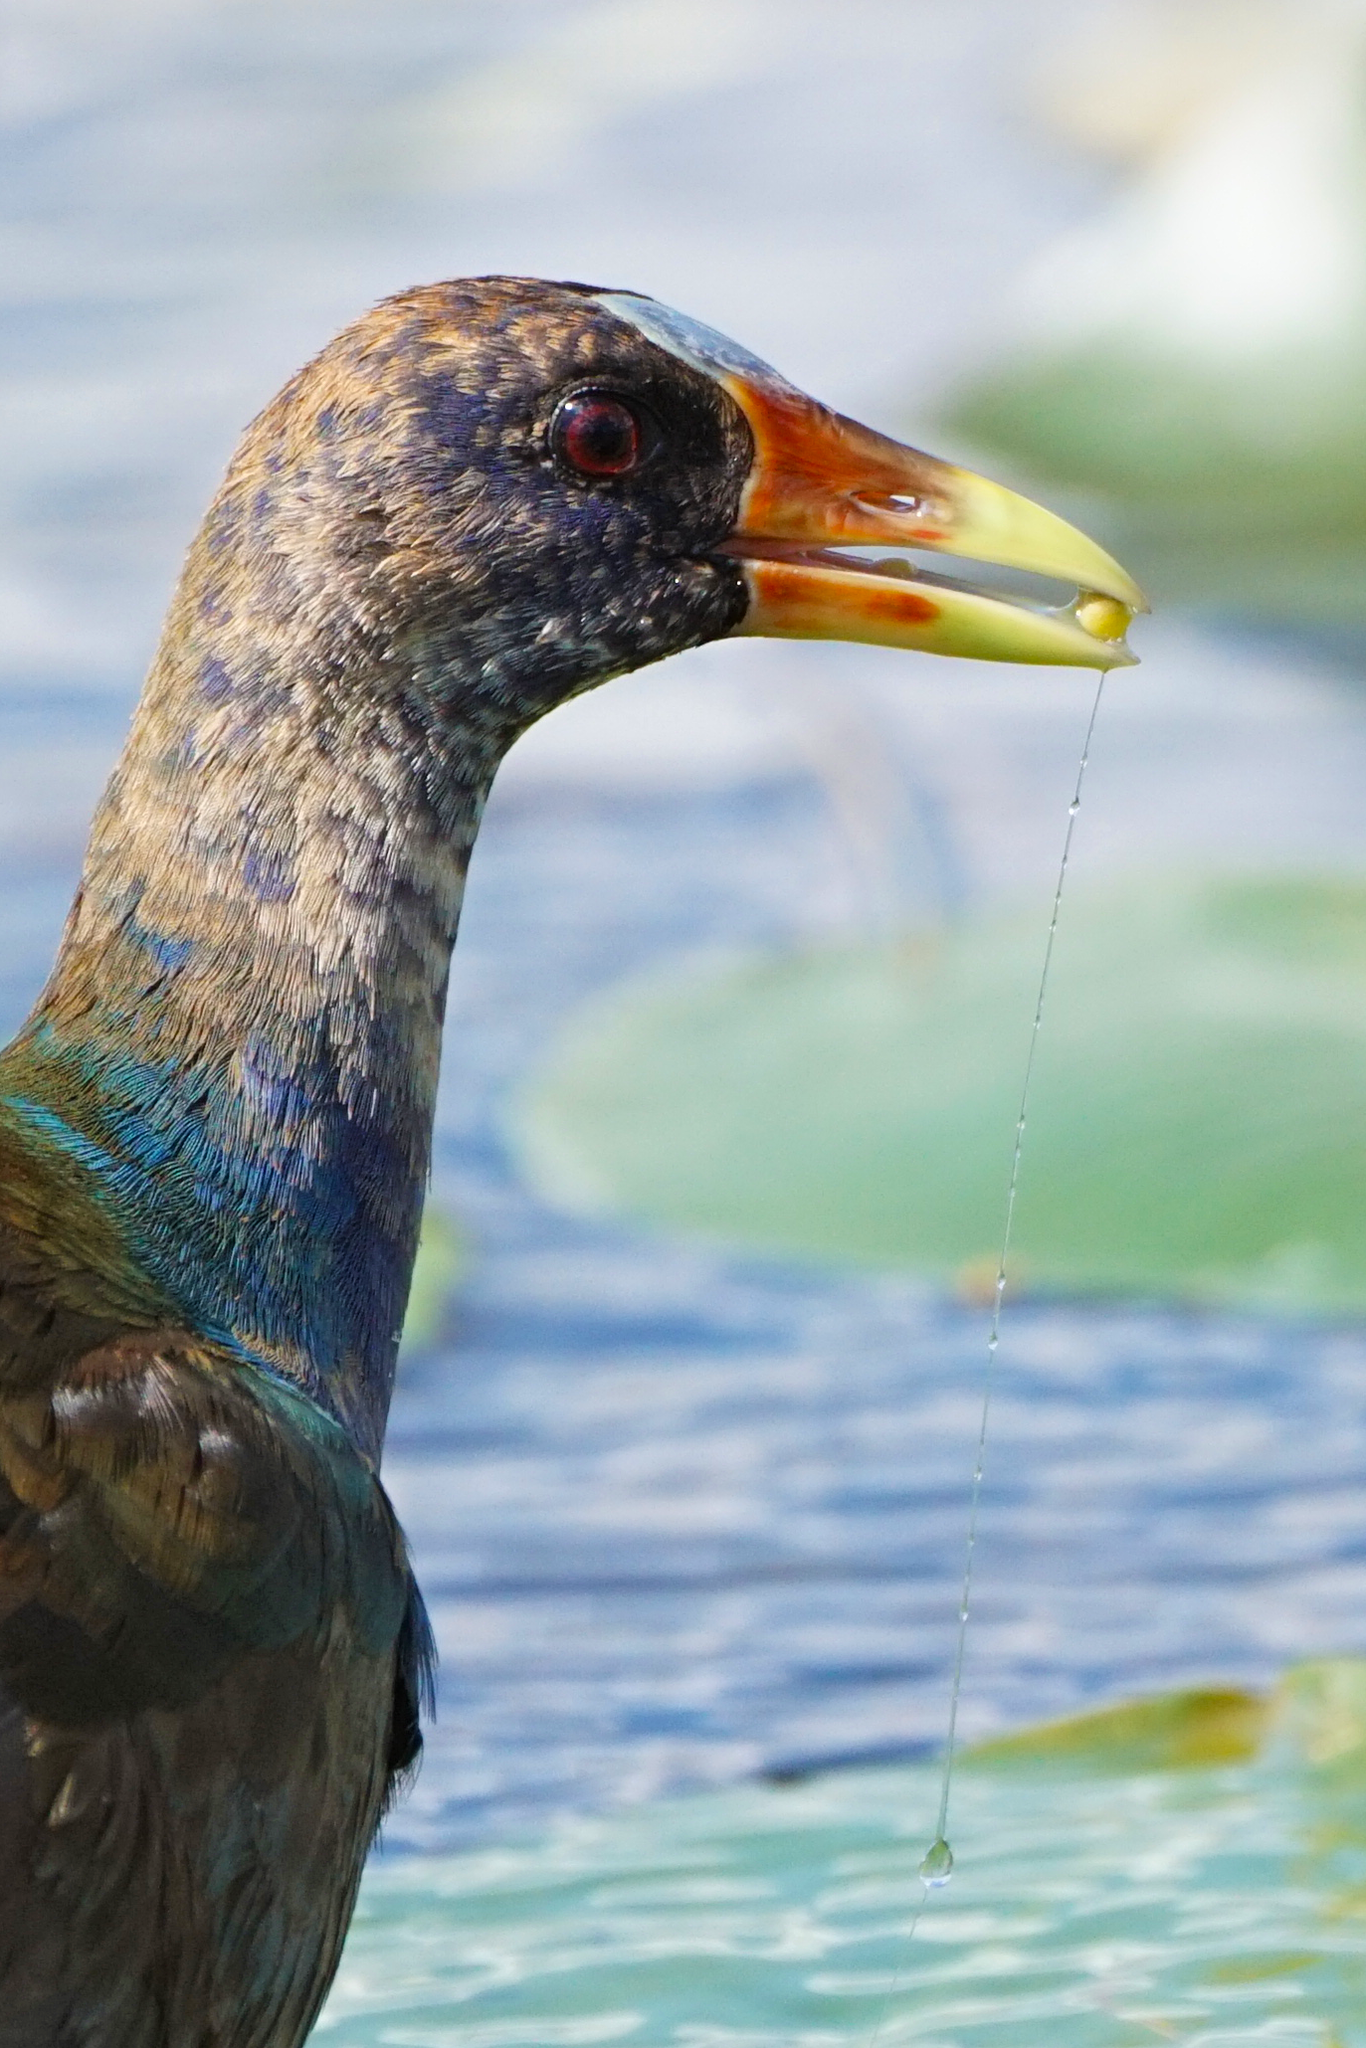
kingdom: Animalia
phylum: Chordata
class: Aves
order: Gruiformes
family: Rallidae
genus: Porphyrio
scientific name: Porphyrio martinica
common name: Purple gallinule
